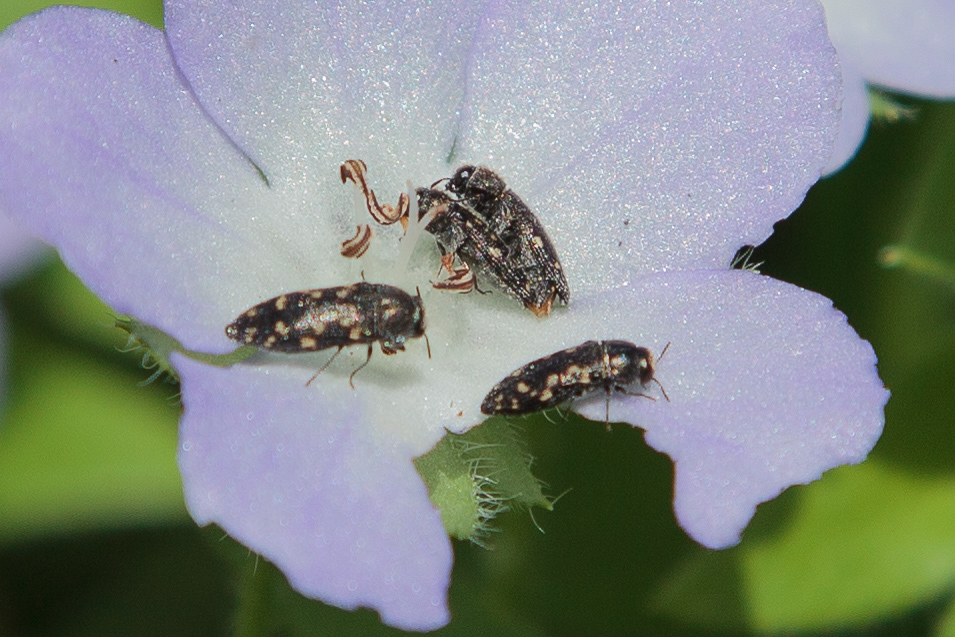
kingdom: Animalia
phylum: Arthropoda
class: Insecta
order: Coleoptera
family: Buprestidae
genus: Acmaeodera
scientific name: Acmaeodera tubulus
